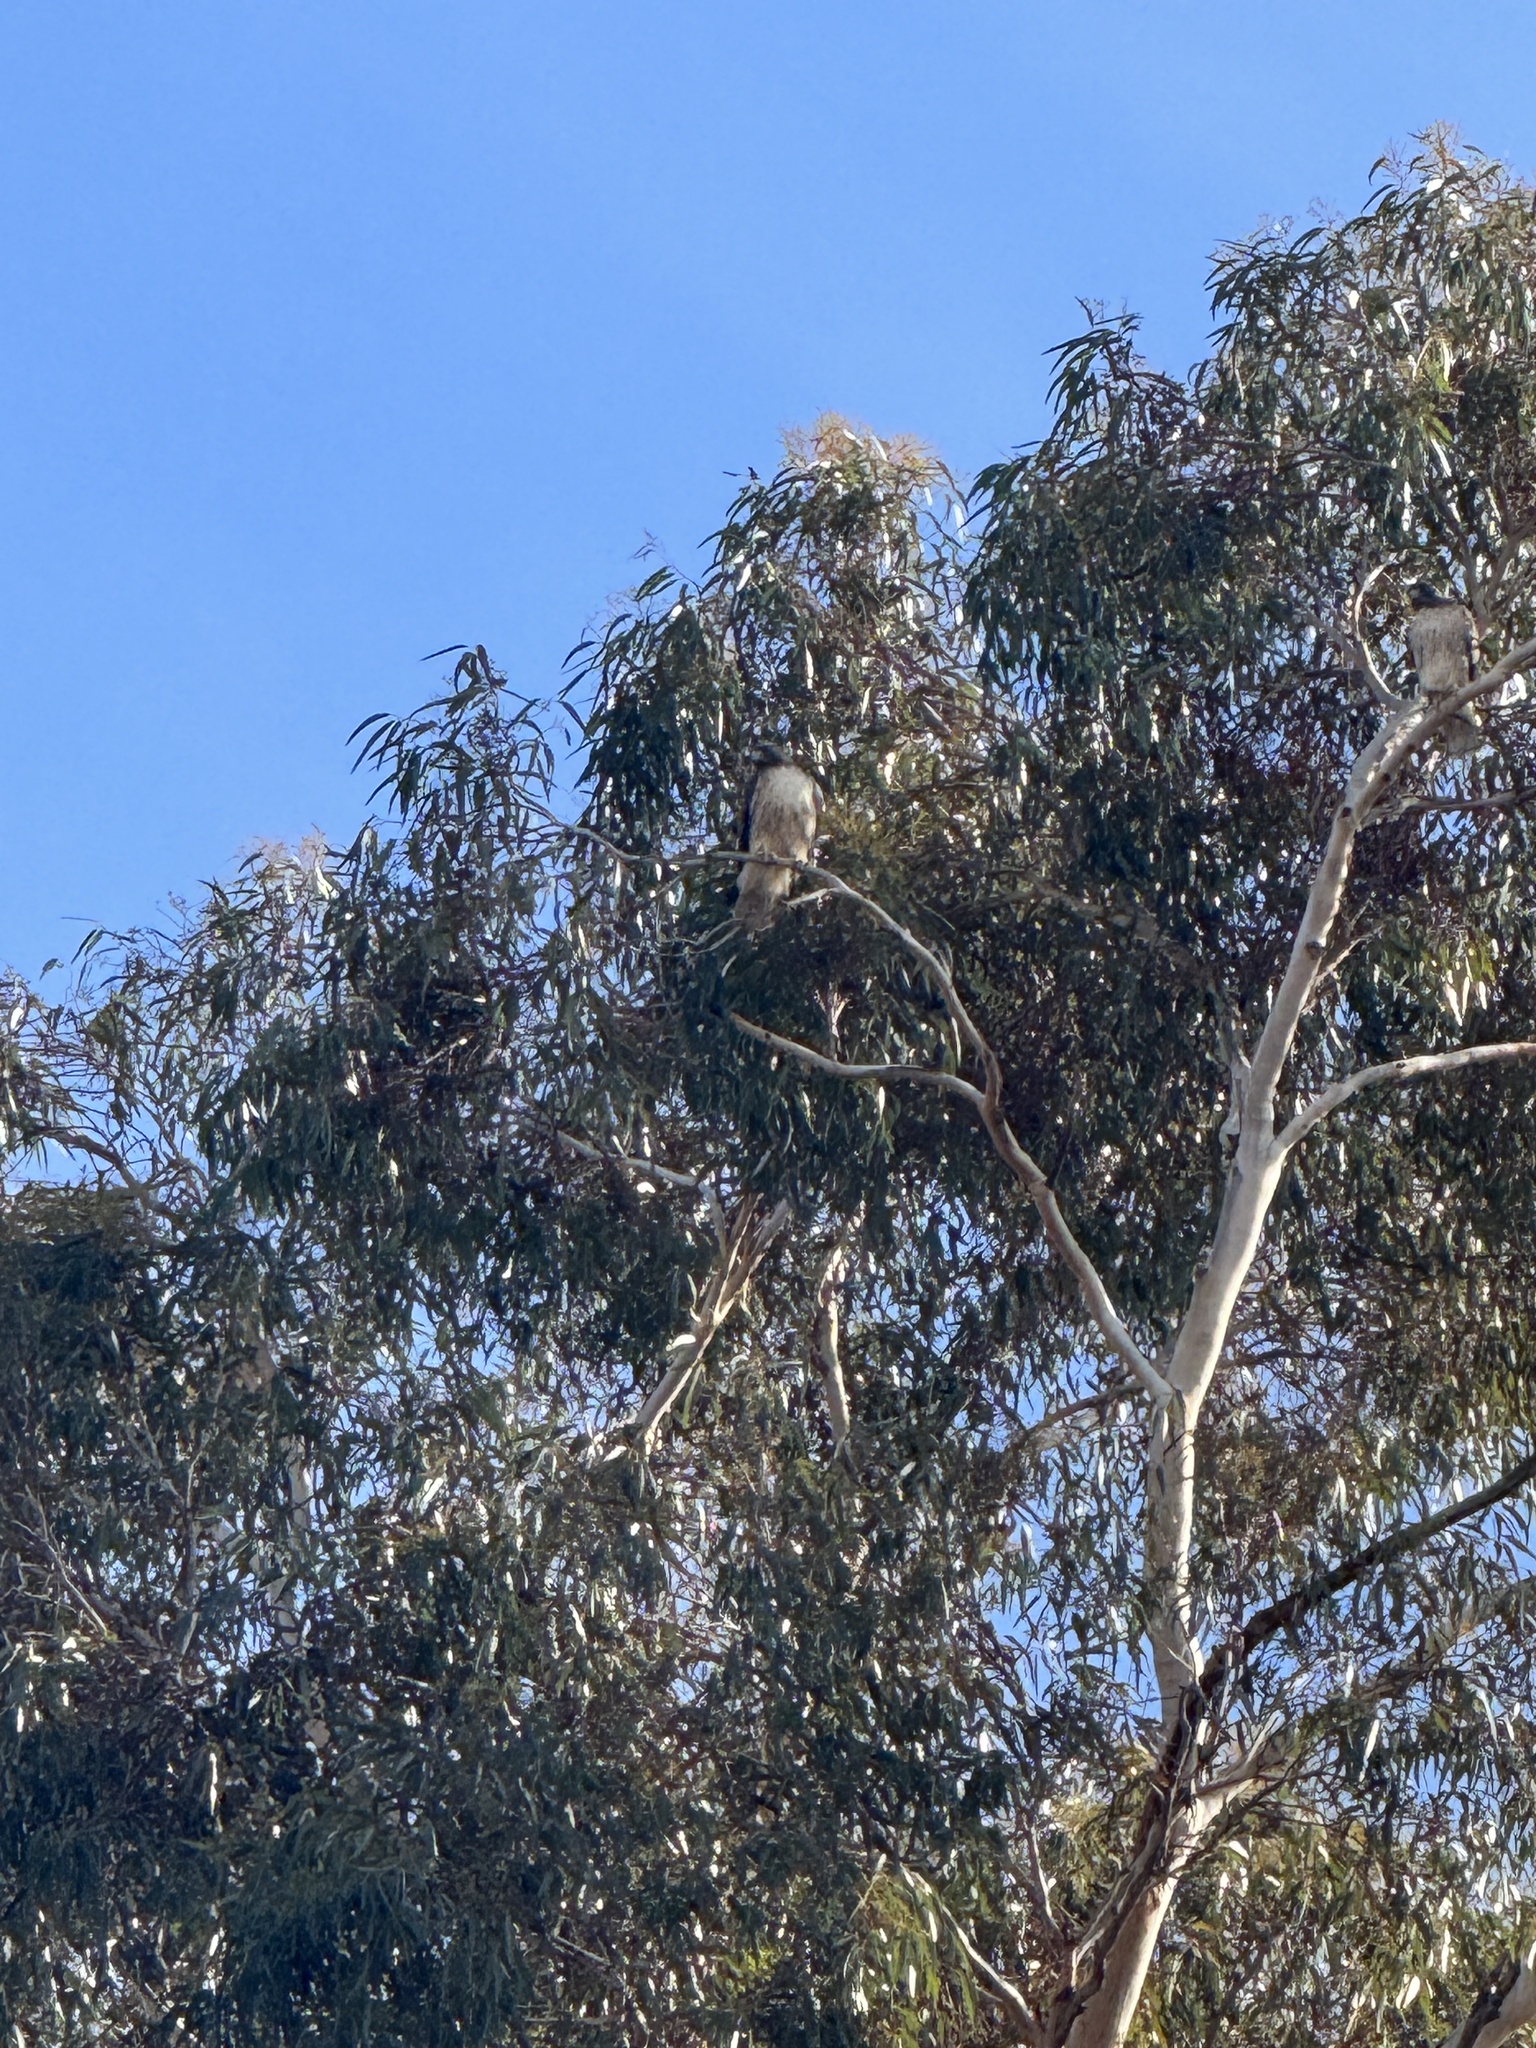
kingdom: Animalia
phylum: Chordata
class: Aves
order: Accipitriformes
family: Accipitridae
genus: Buteo
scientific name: Buteo jamaicensis
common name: Red-tailed hawk
